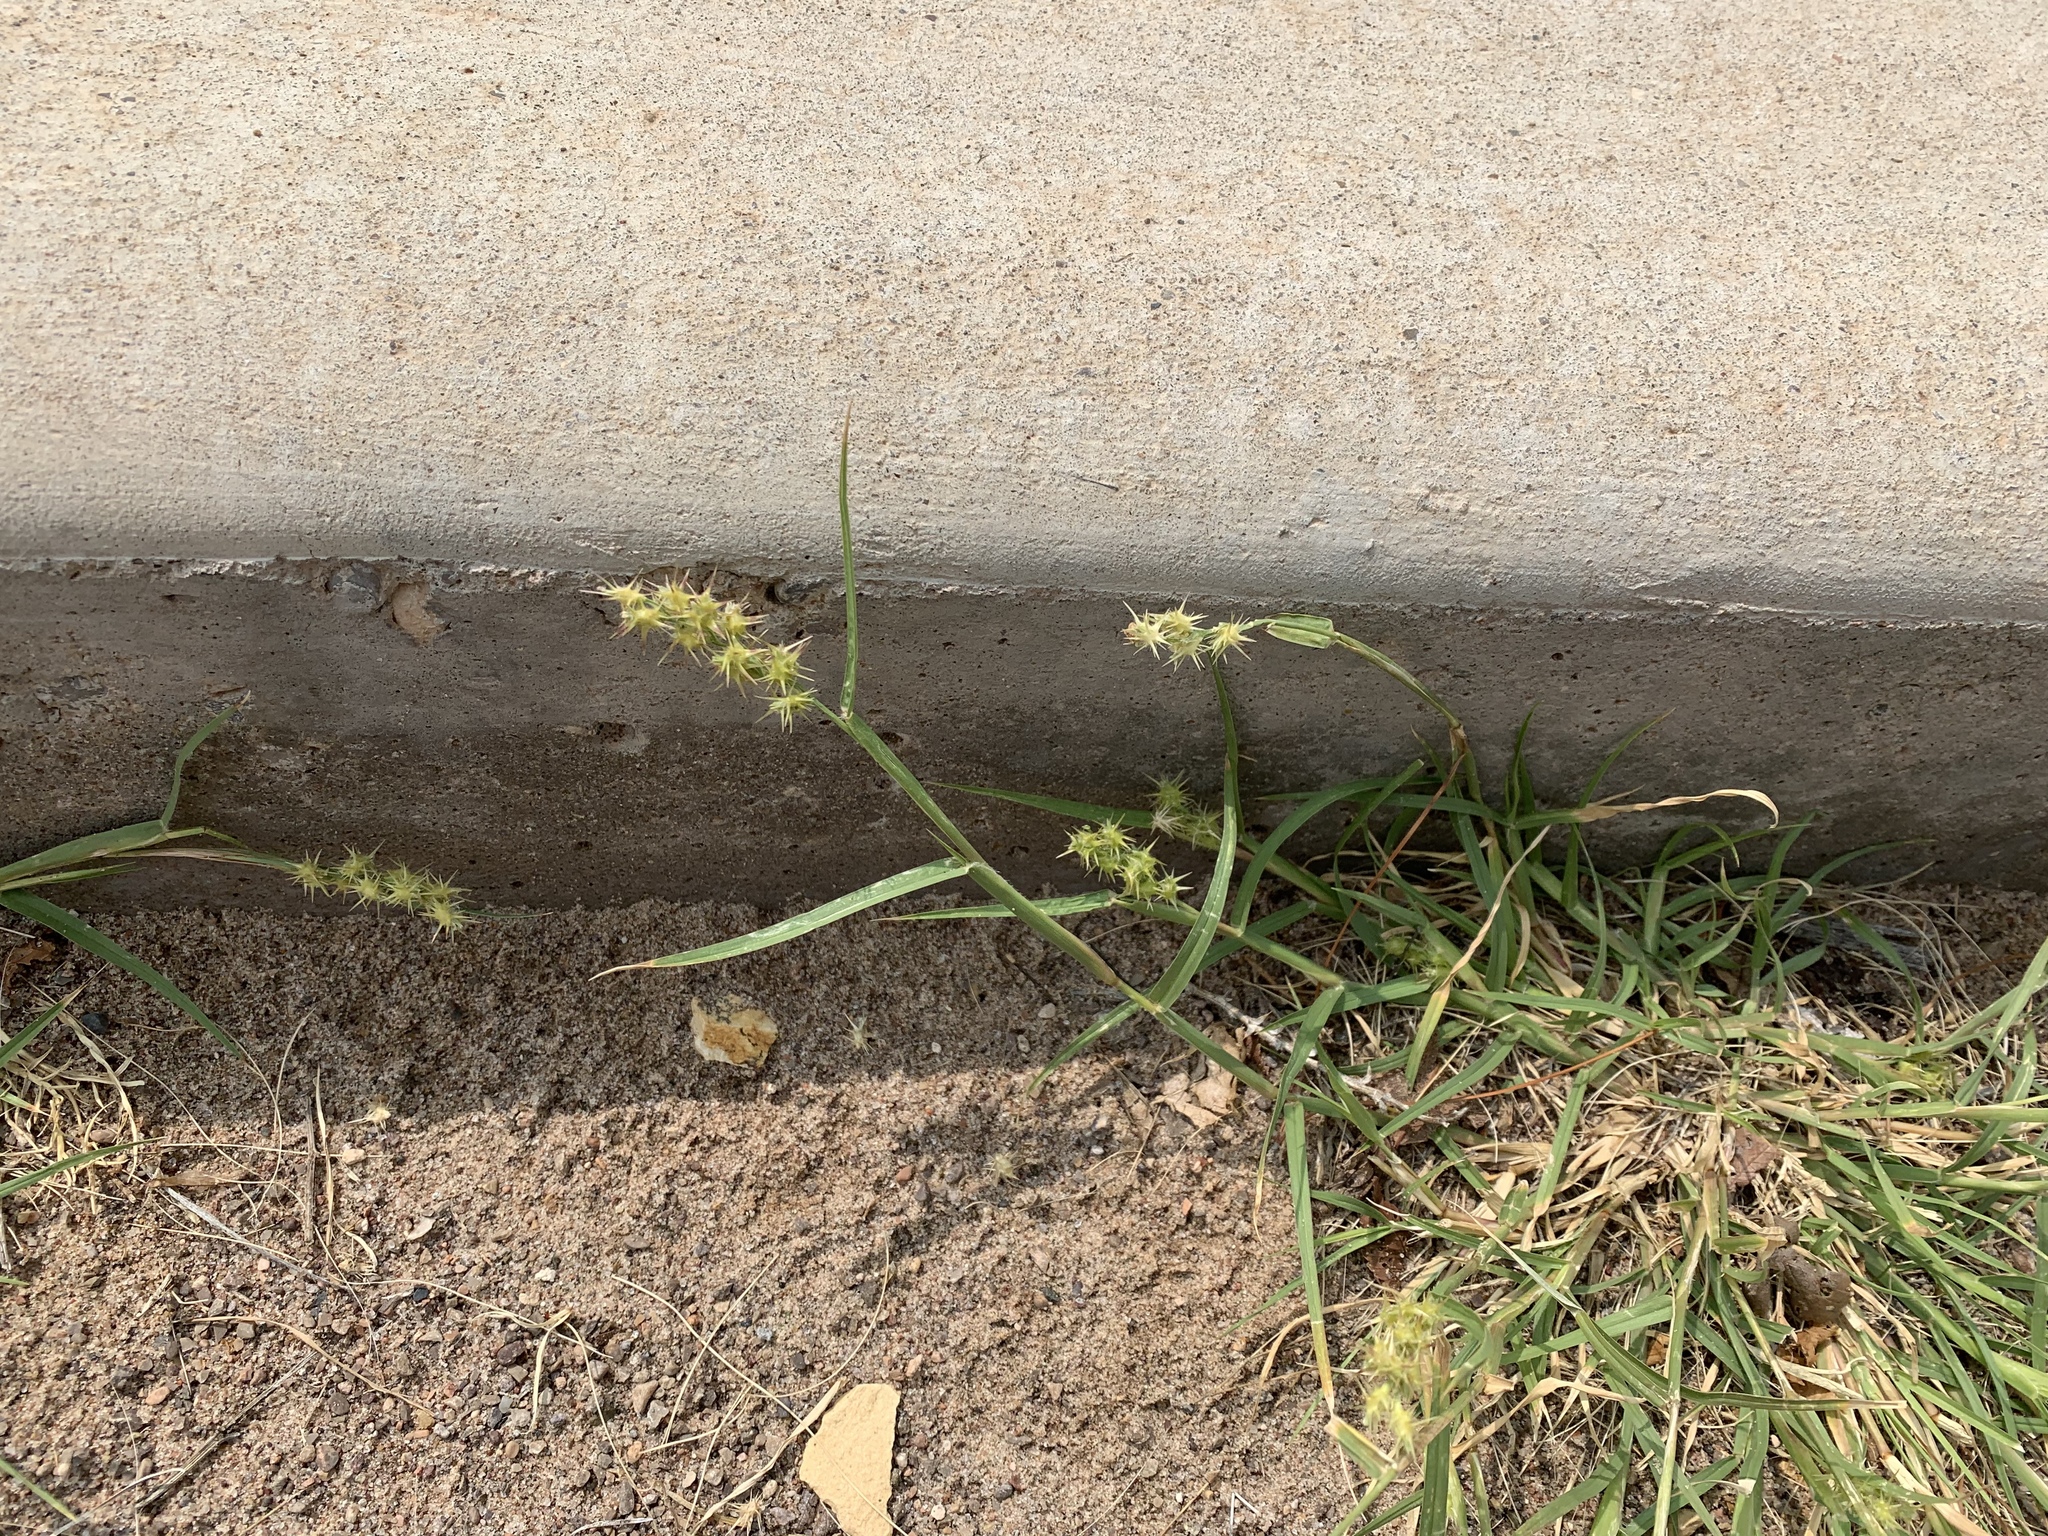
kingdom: Plantae
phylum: Tracheophyta
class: Liliopsida
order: Poales
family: Poaceae
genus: Cenchrus
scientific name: Cenchrus longispinus
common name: Mat sandbur
